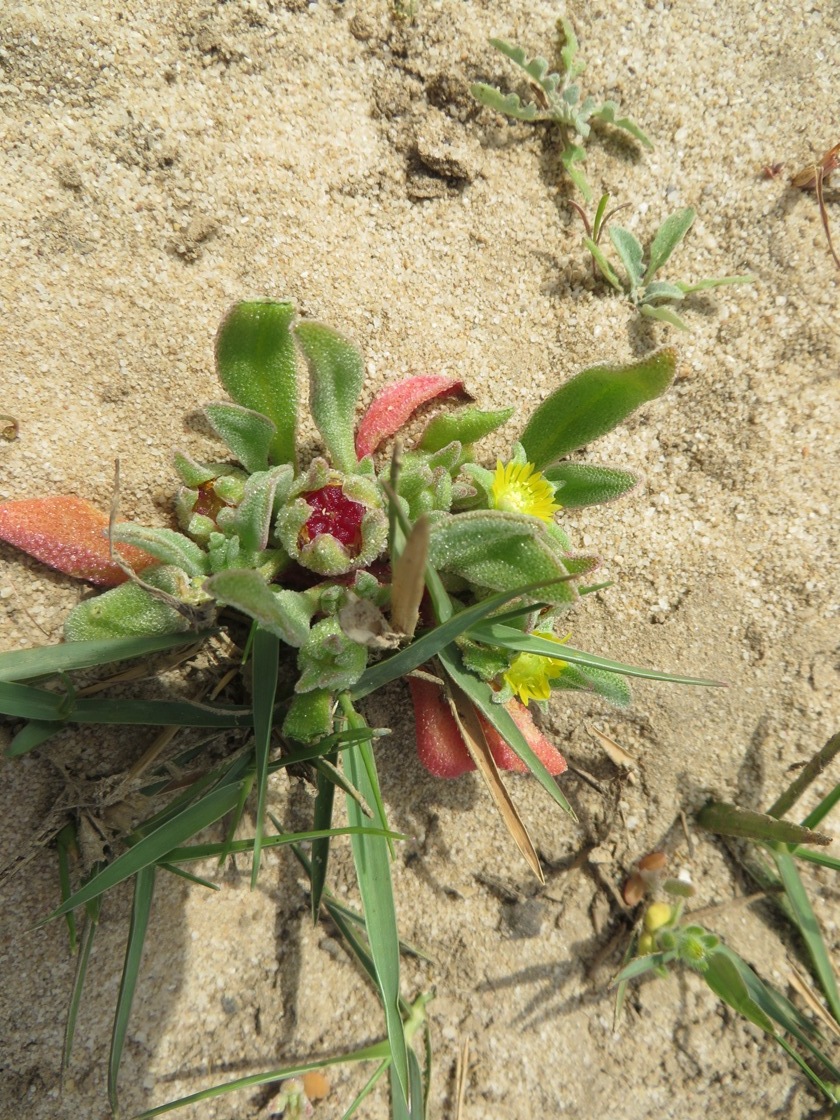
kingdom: Plantae
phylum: Tracheophyta
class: Magnoliopsida
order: Caryophyllales
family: Aizoaceae
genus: Cleretum
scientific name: Cleretum papulosum
